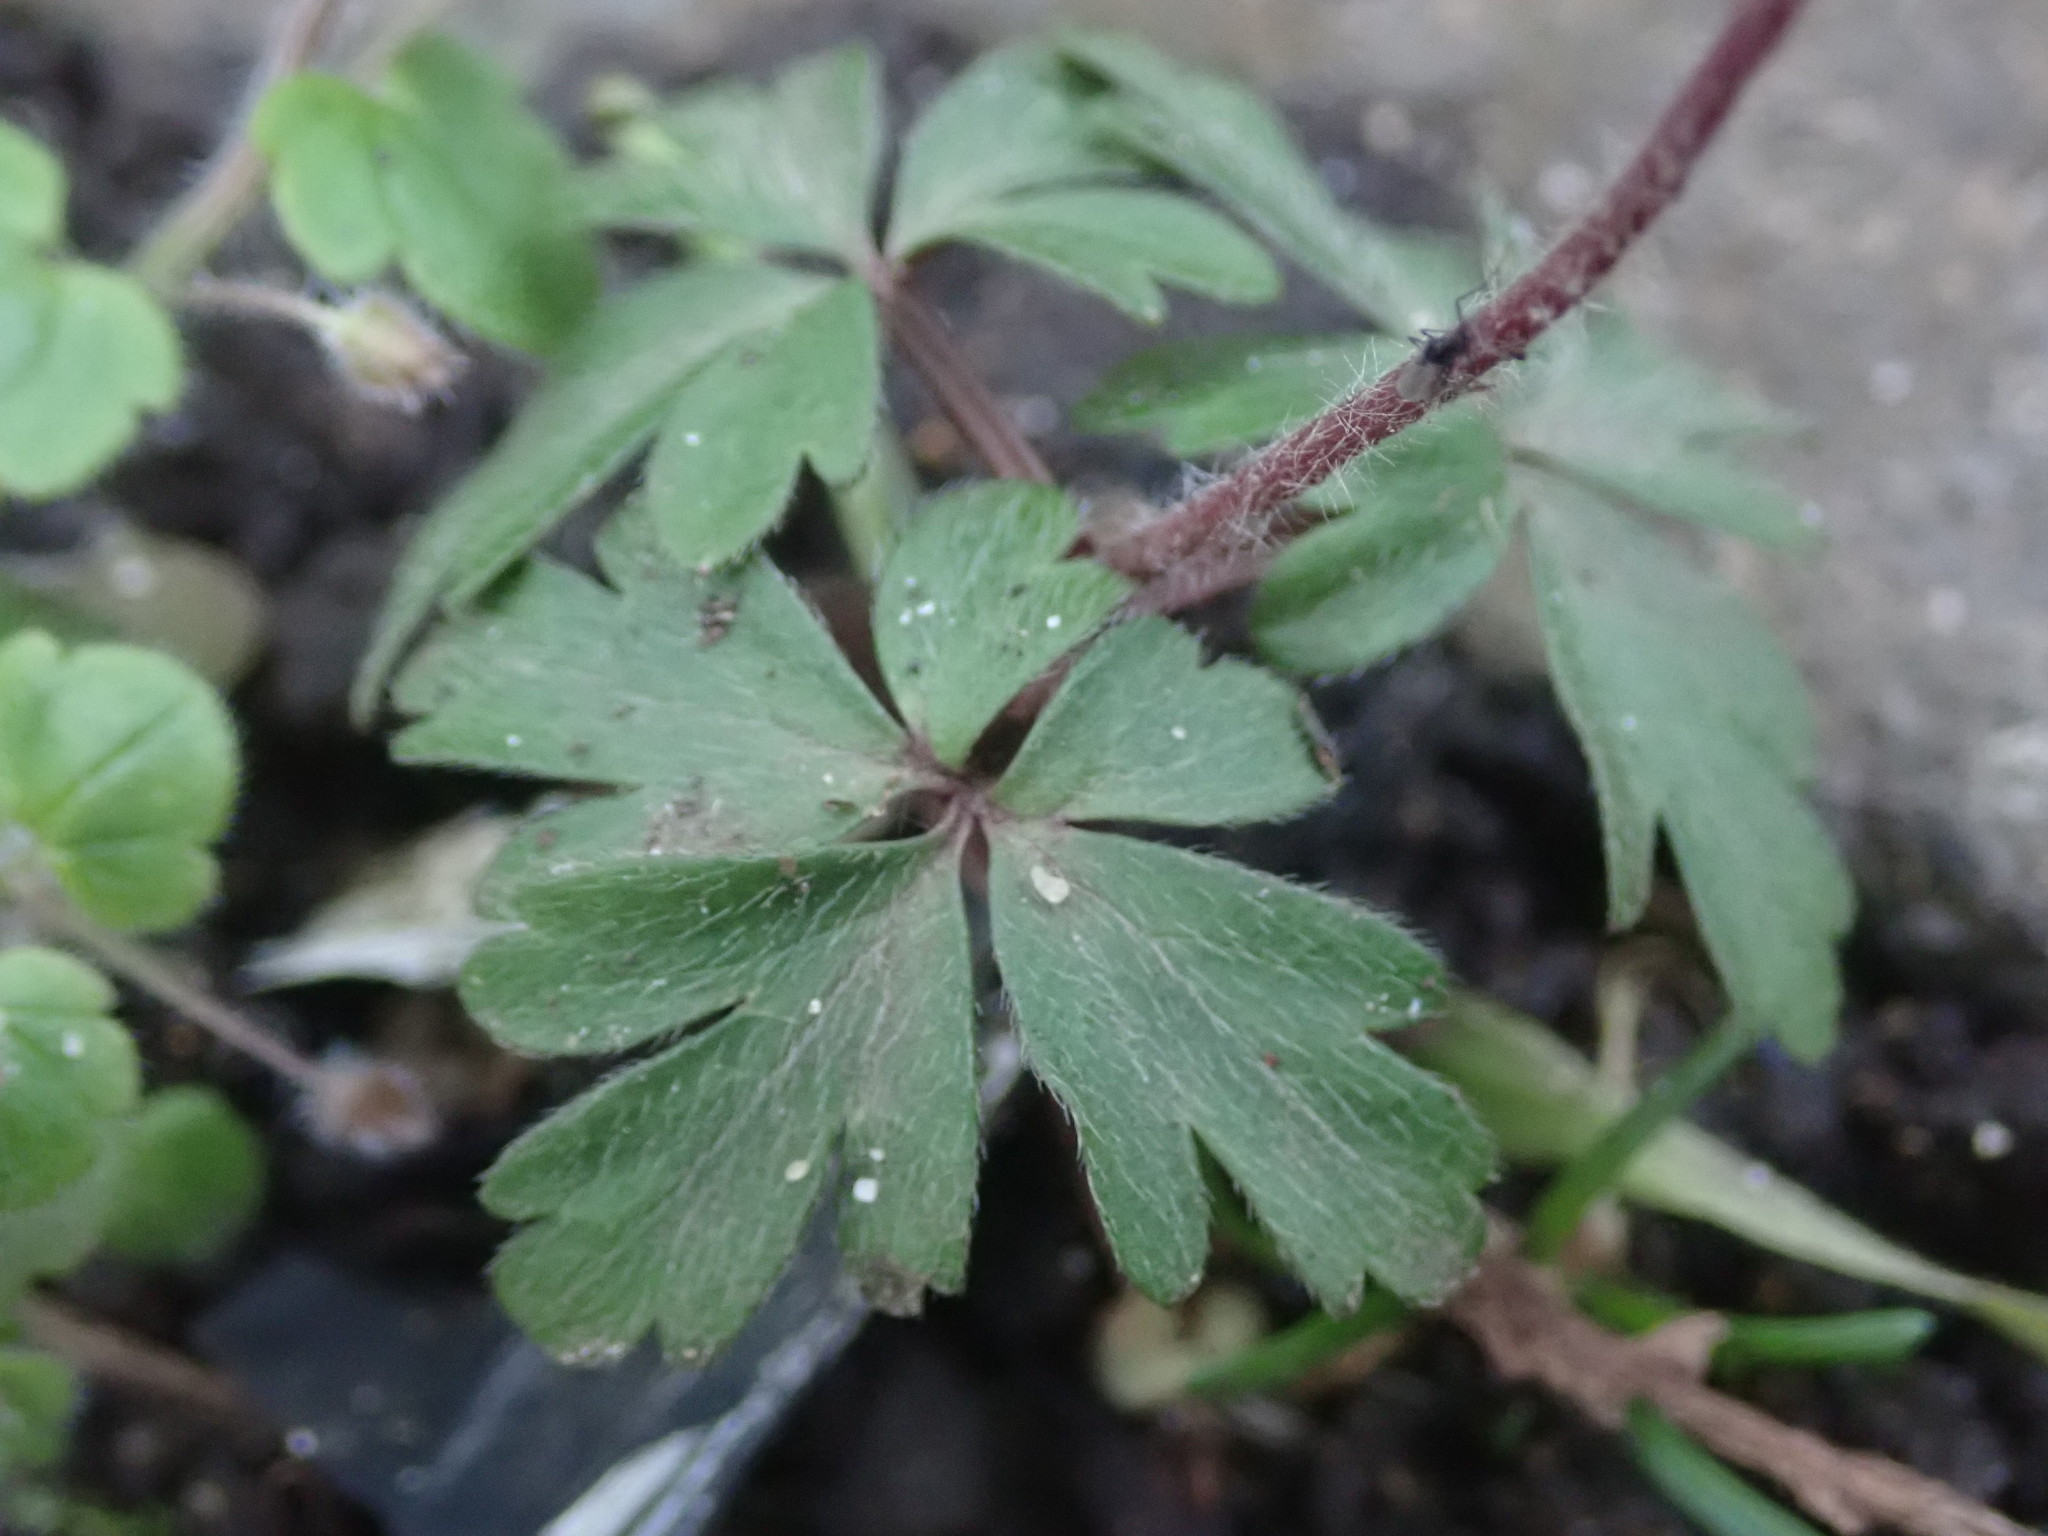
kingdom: Plantae
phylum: Tracheophyta
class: Magnoliopsida
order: Ranunculales
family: Ranunculaceae
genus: Anemone
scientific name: Anemone blanda
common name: Balkan anemone
